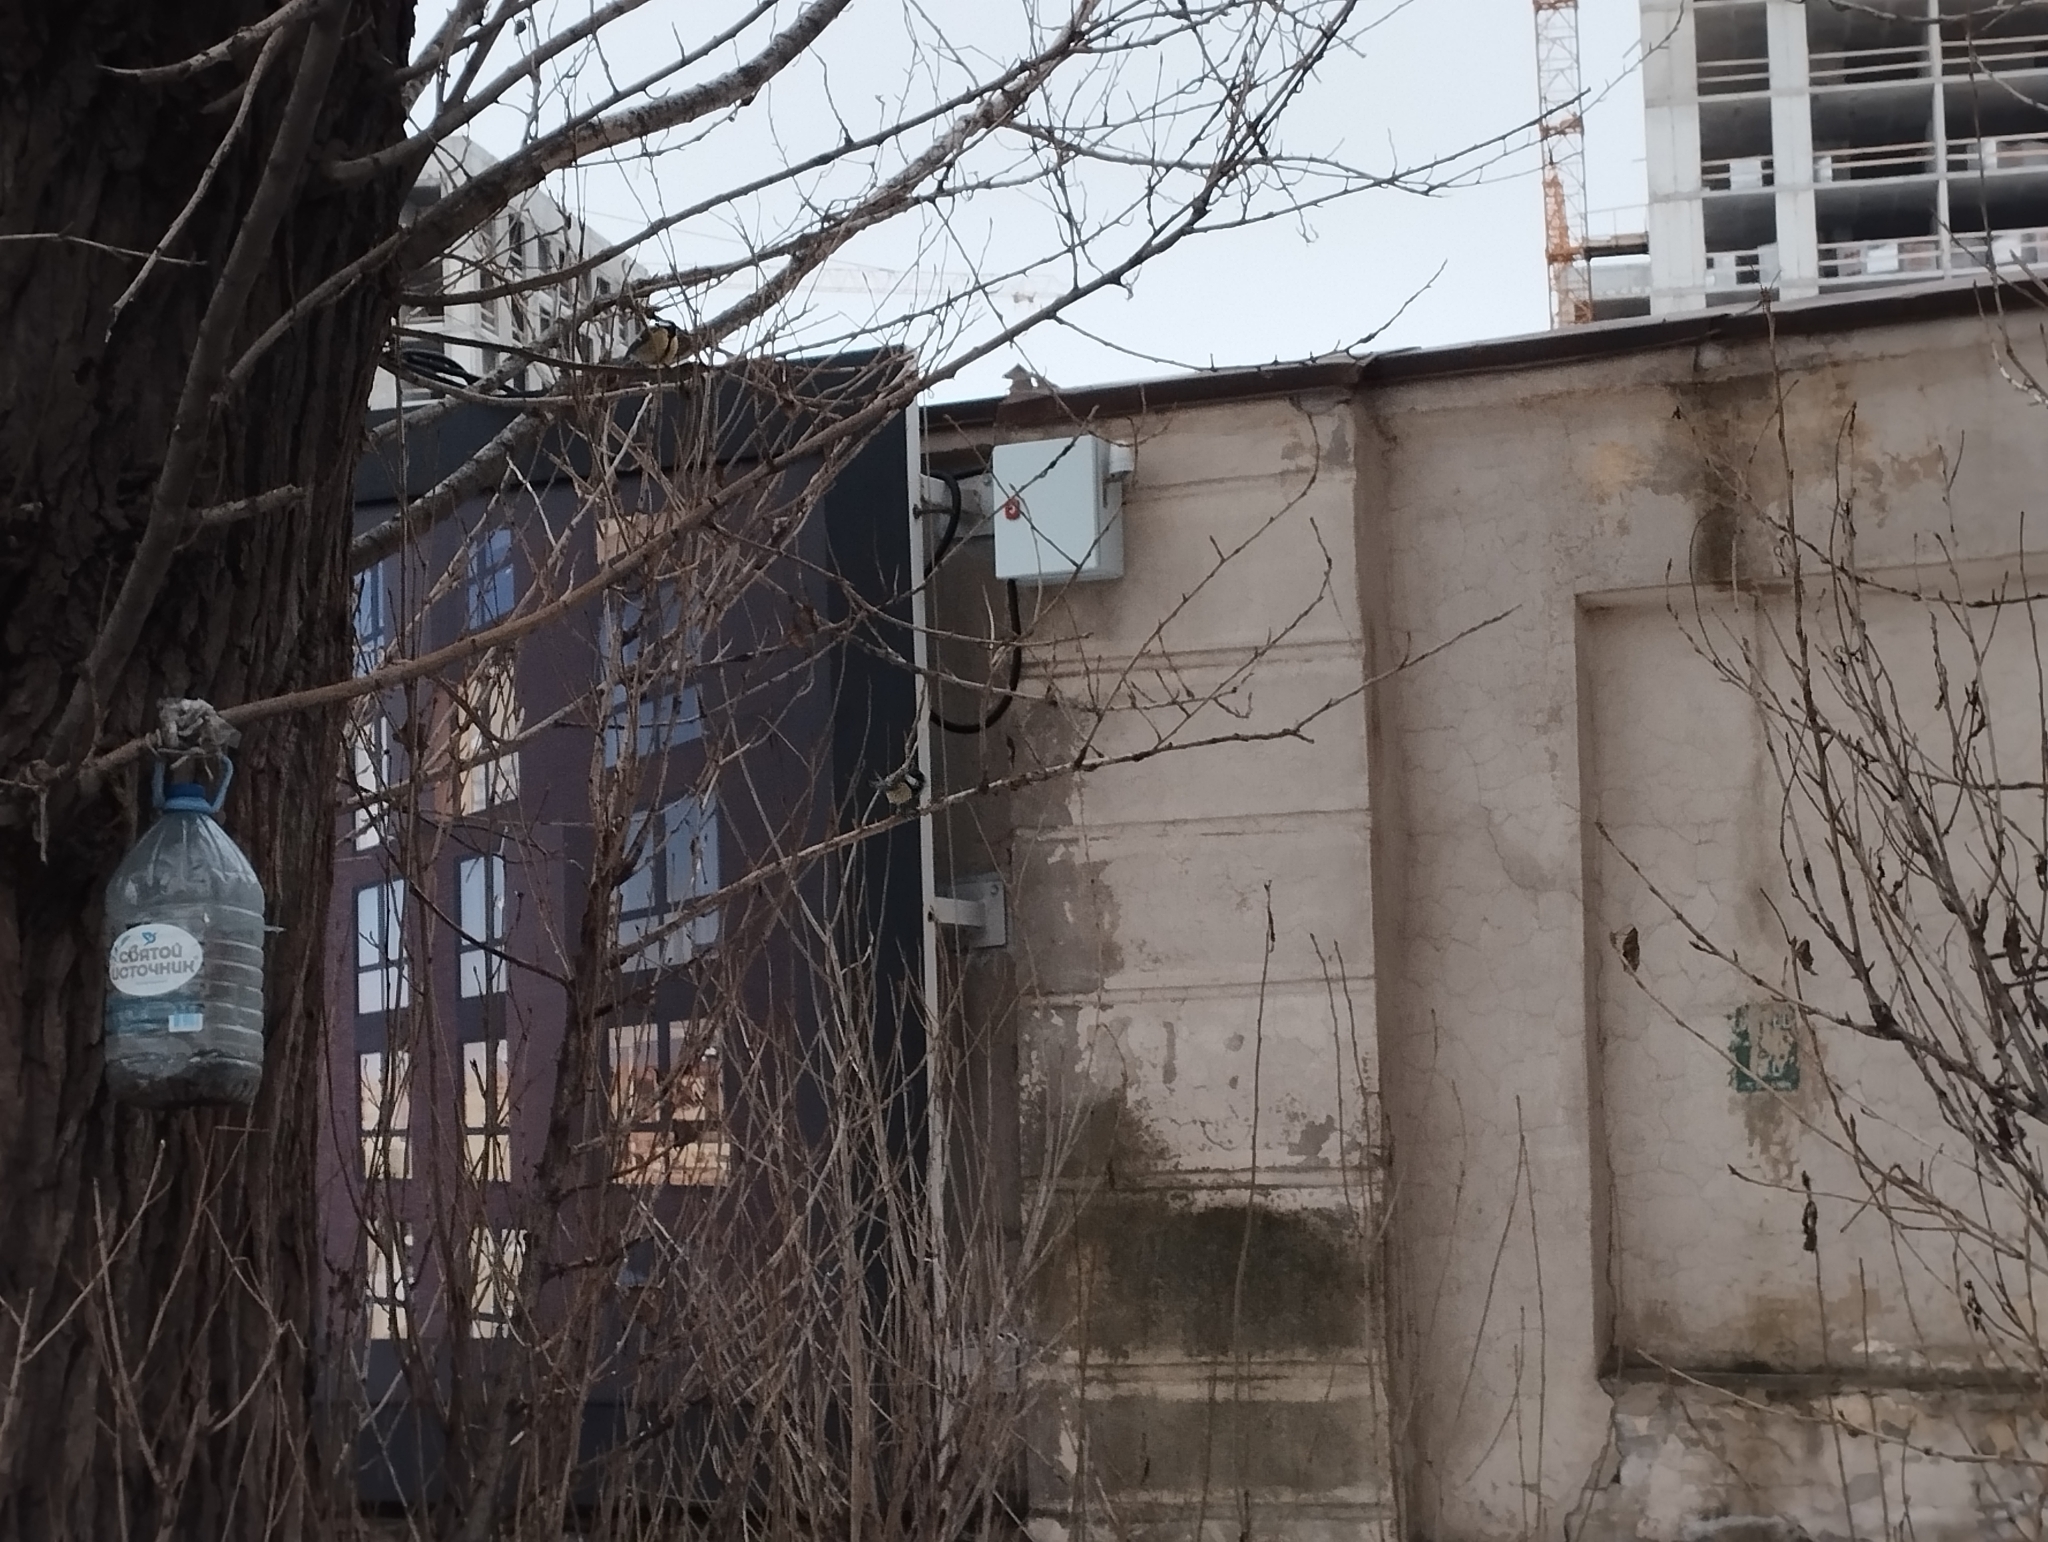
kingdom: Animalia
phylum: Chordata
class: Aves
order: Passeriformes
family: Paridae
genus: Parus
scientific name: Parus major
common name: Great tit
